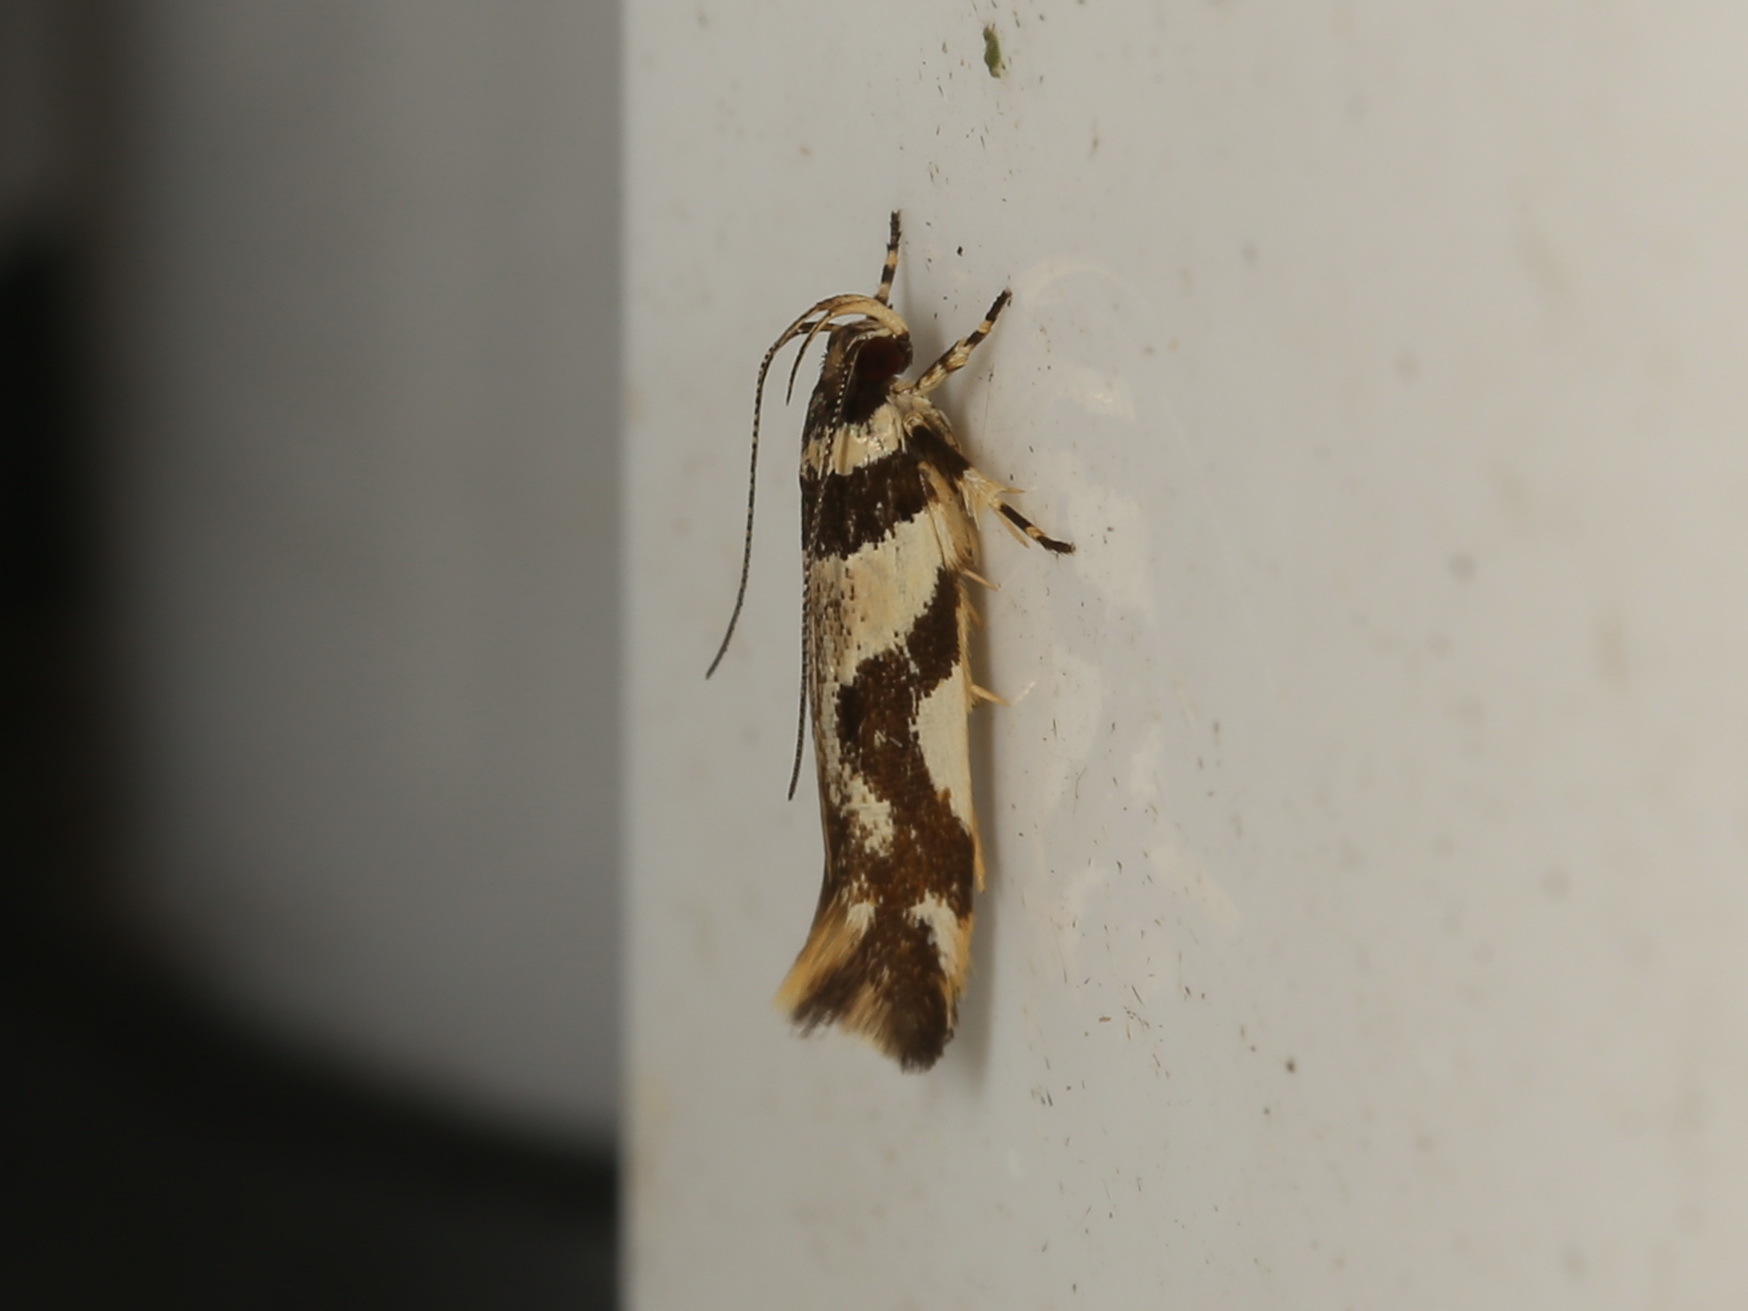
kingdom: Animalia
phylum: Arthropoda
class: Insecta
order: Lepidoptera
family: Cosmopterigidae
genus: Macrobathra
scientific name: Macrobathra desmotoma
